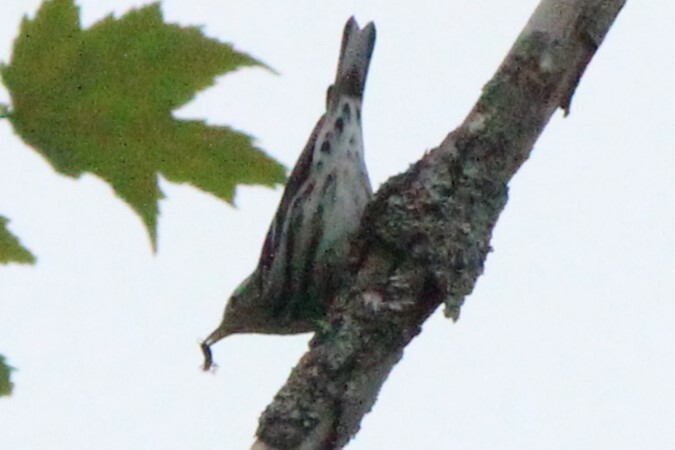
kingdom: Animalia
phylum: Chordata
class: Aves
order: Passeriformes
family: Parulidae
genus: Mniotilta
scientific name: Mniotilta varia
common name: Black-and-white warbler
